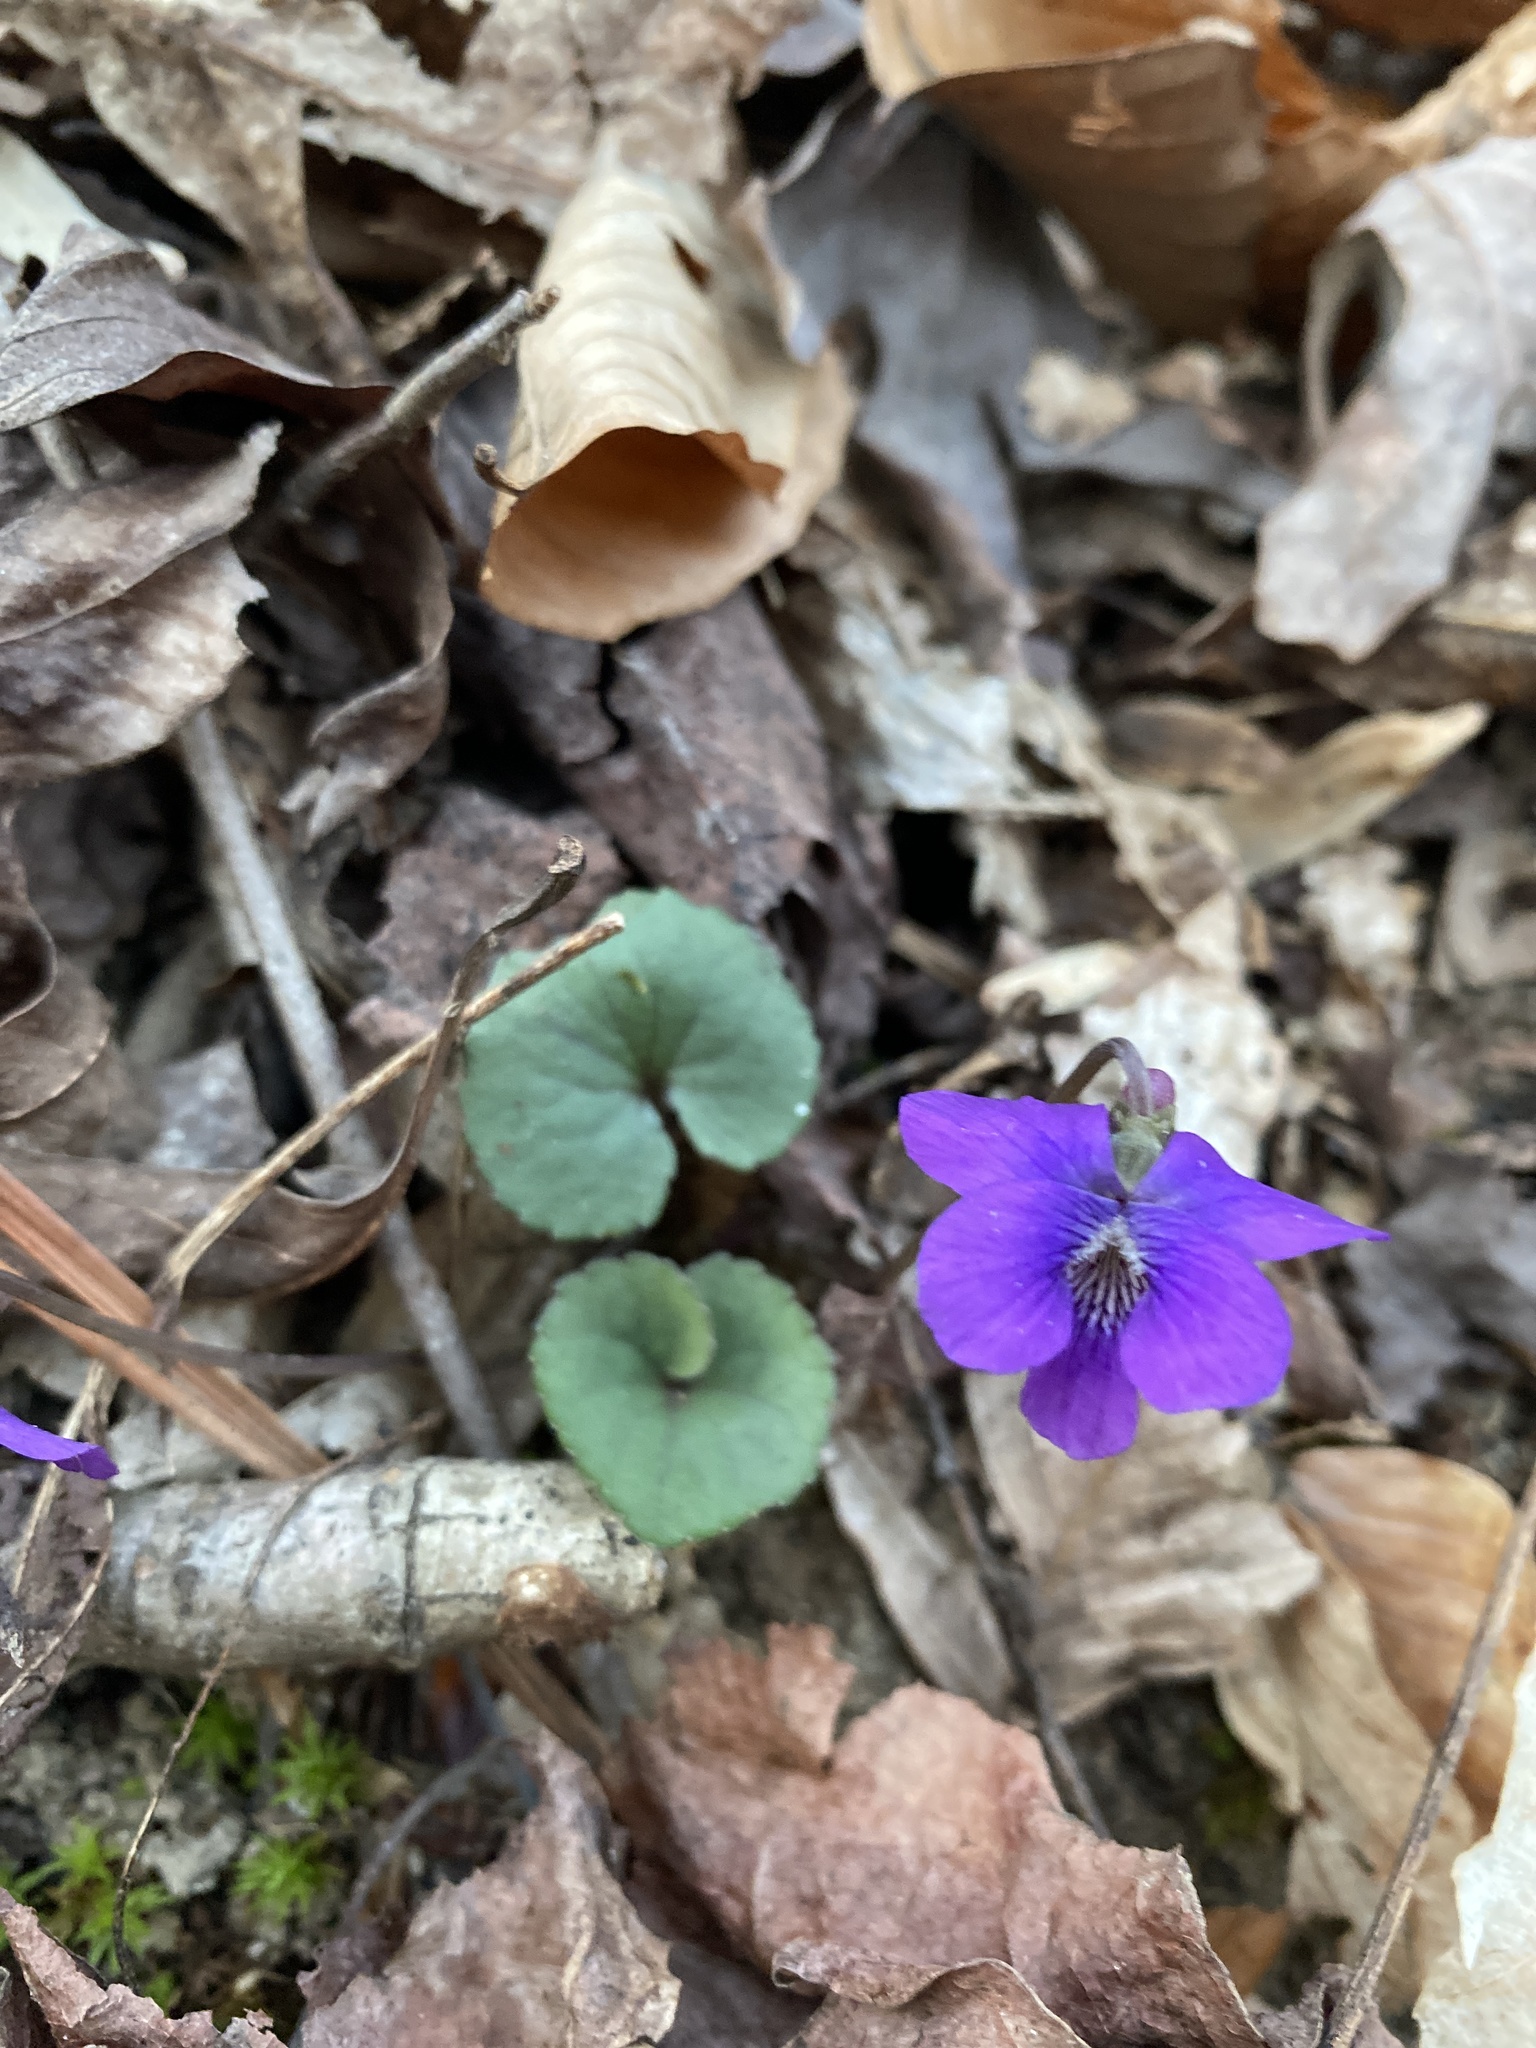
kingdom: Plantae
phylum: Tracheophyta
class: Magnoliopsida
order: Malpighiales
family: Violaceae
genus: Viola
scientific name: Viola sororia
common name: Dooryard violet
